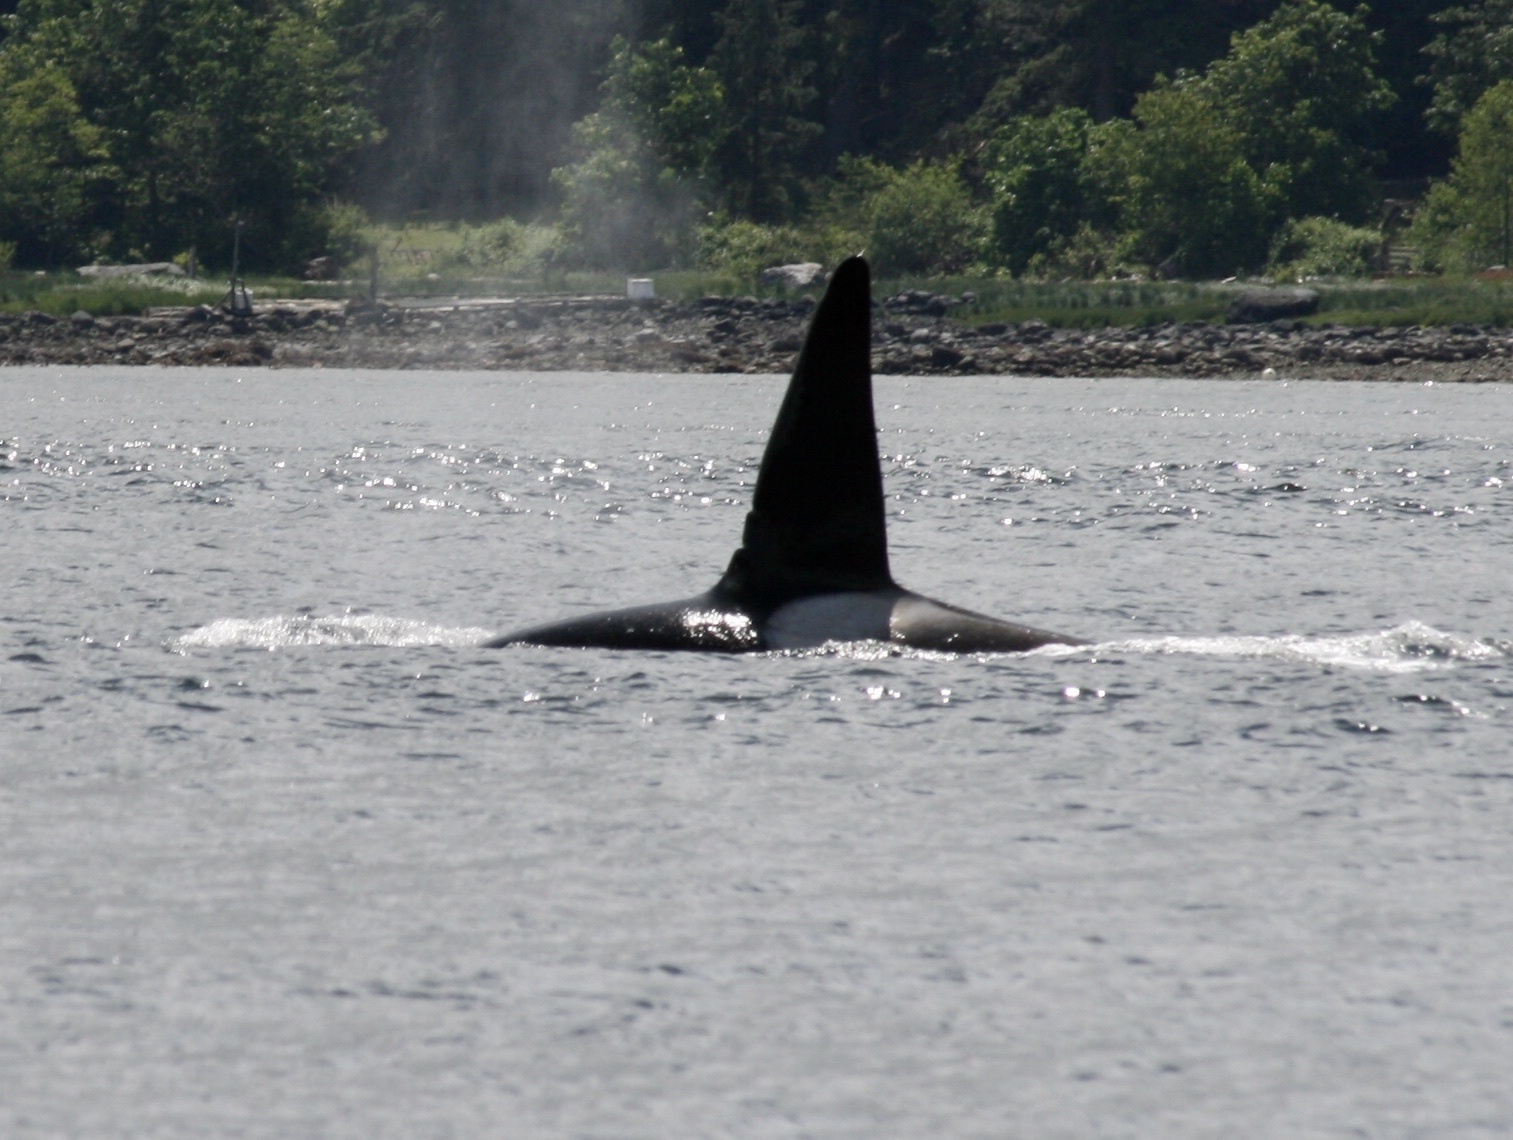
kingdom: Animalia
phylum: Chordata
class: Mammalia
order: Cetacea
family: Delphinidae
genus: Orcinus
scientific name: Orcinus orca
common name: Killer whale
